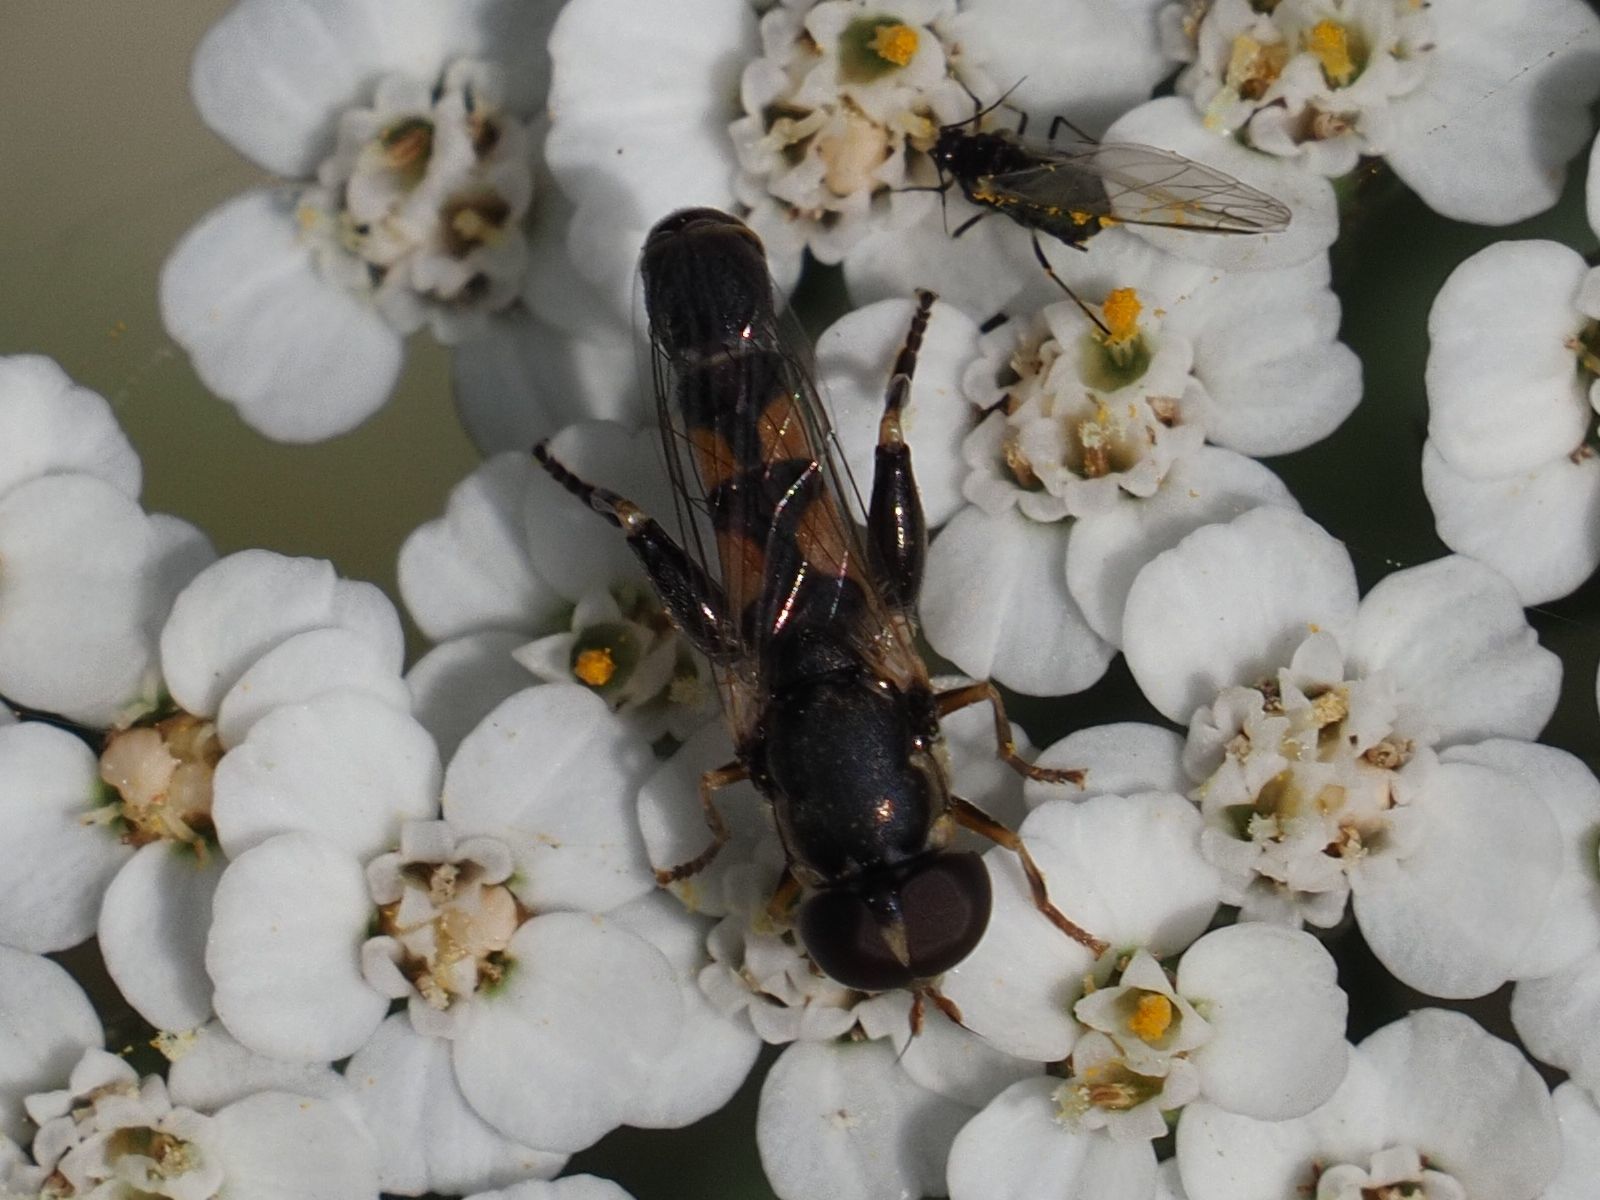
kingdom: Animalia
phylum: Arthropoda
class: Insecta
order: Diptera
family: Syrphidae
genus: Syritta
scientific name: Syritta pipiens
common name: Hover fly
